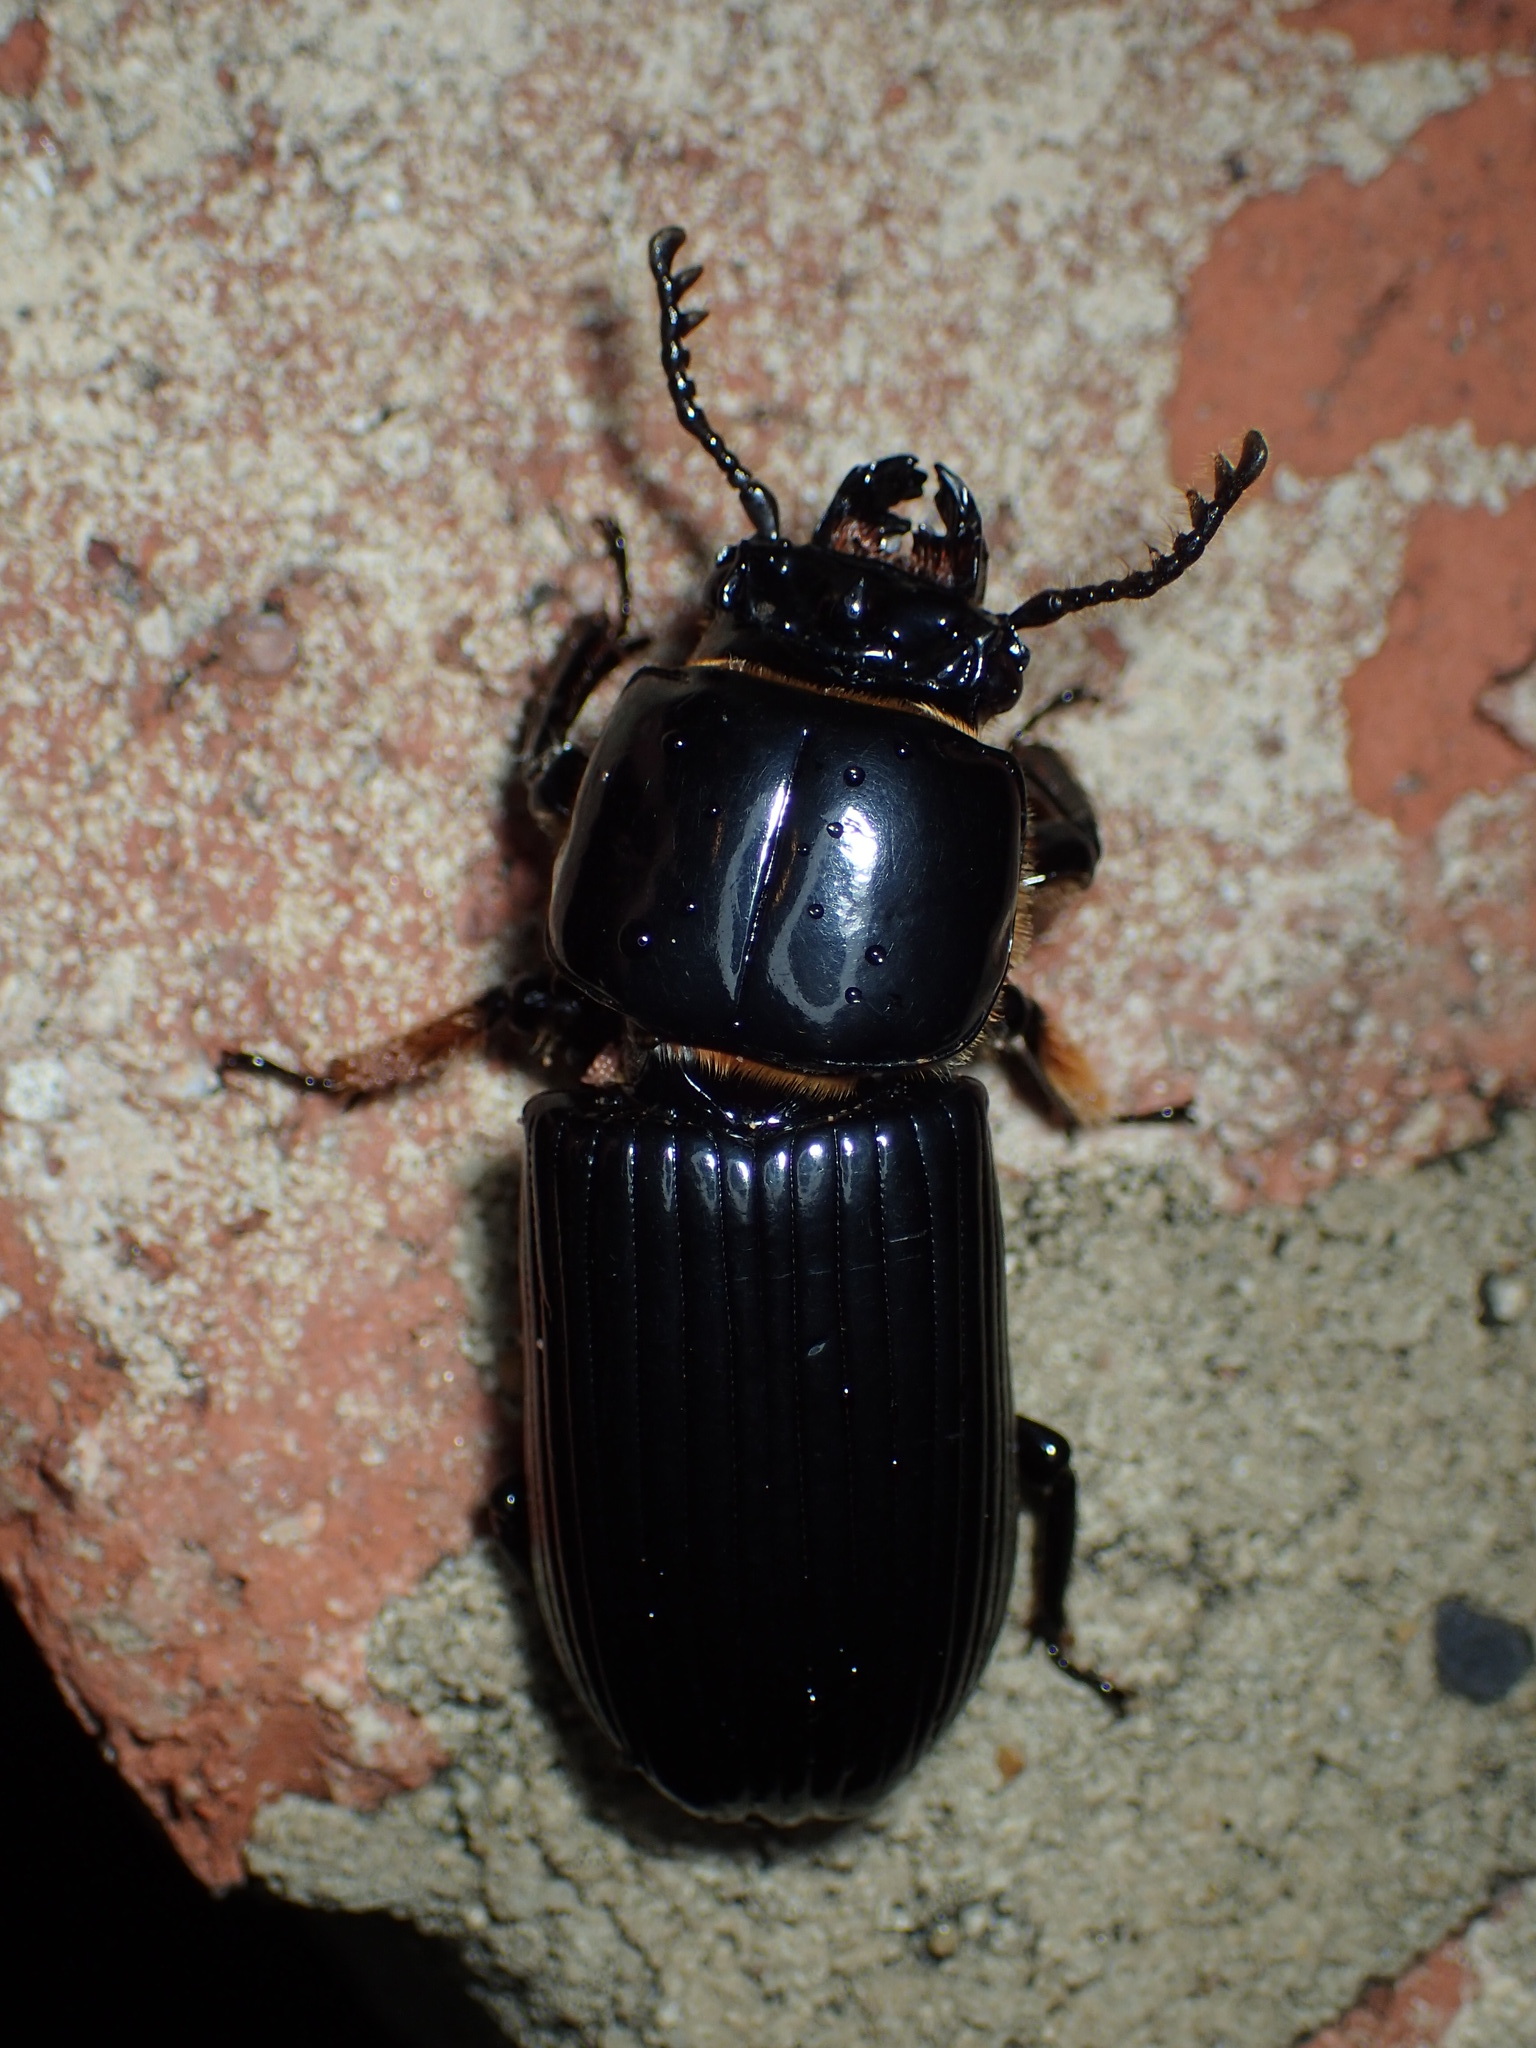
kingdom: Animalia
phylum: Arthropoda
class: Insecta
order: Coleoptera
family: Passalidae
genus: Odontotaenius
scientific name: Odontotaenius disjunctus
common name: Patent leather beetle
